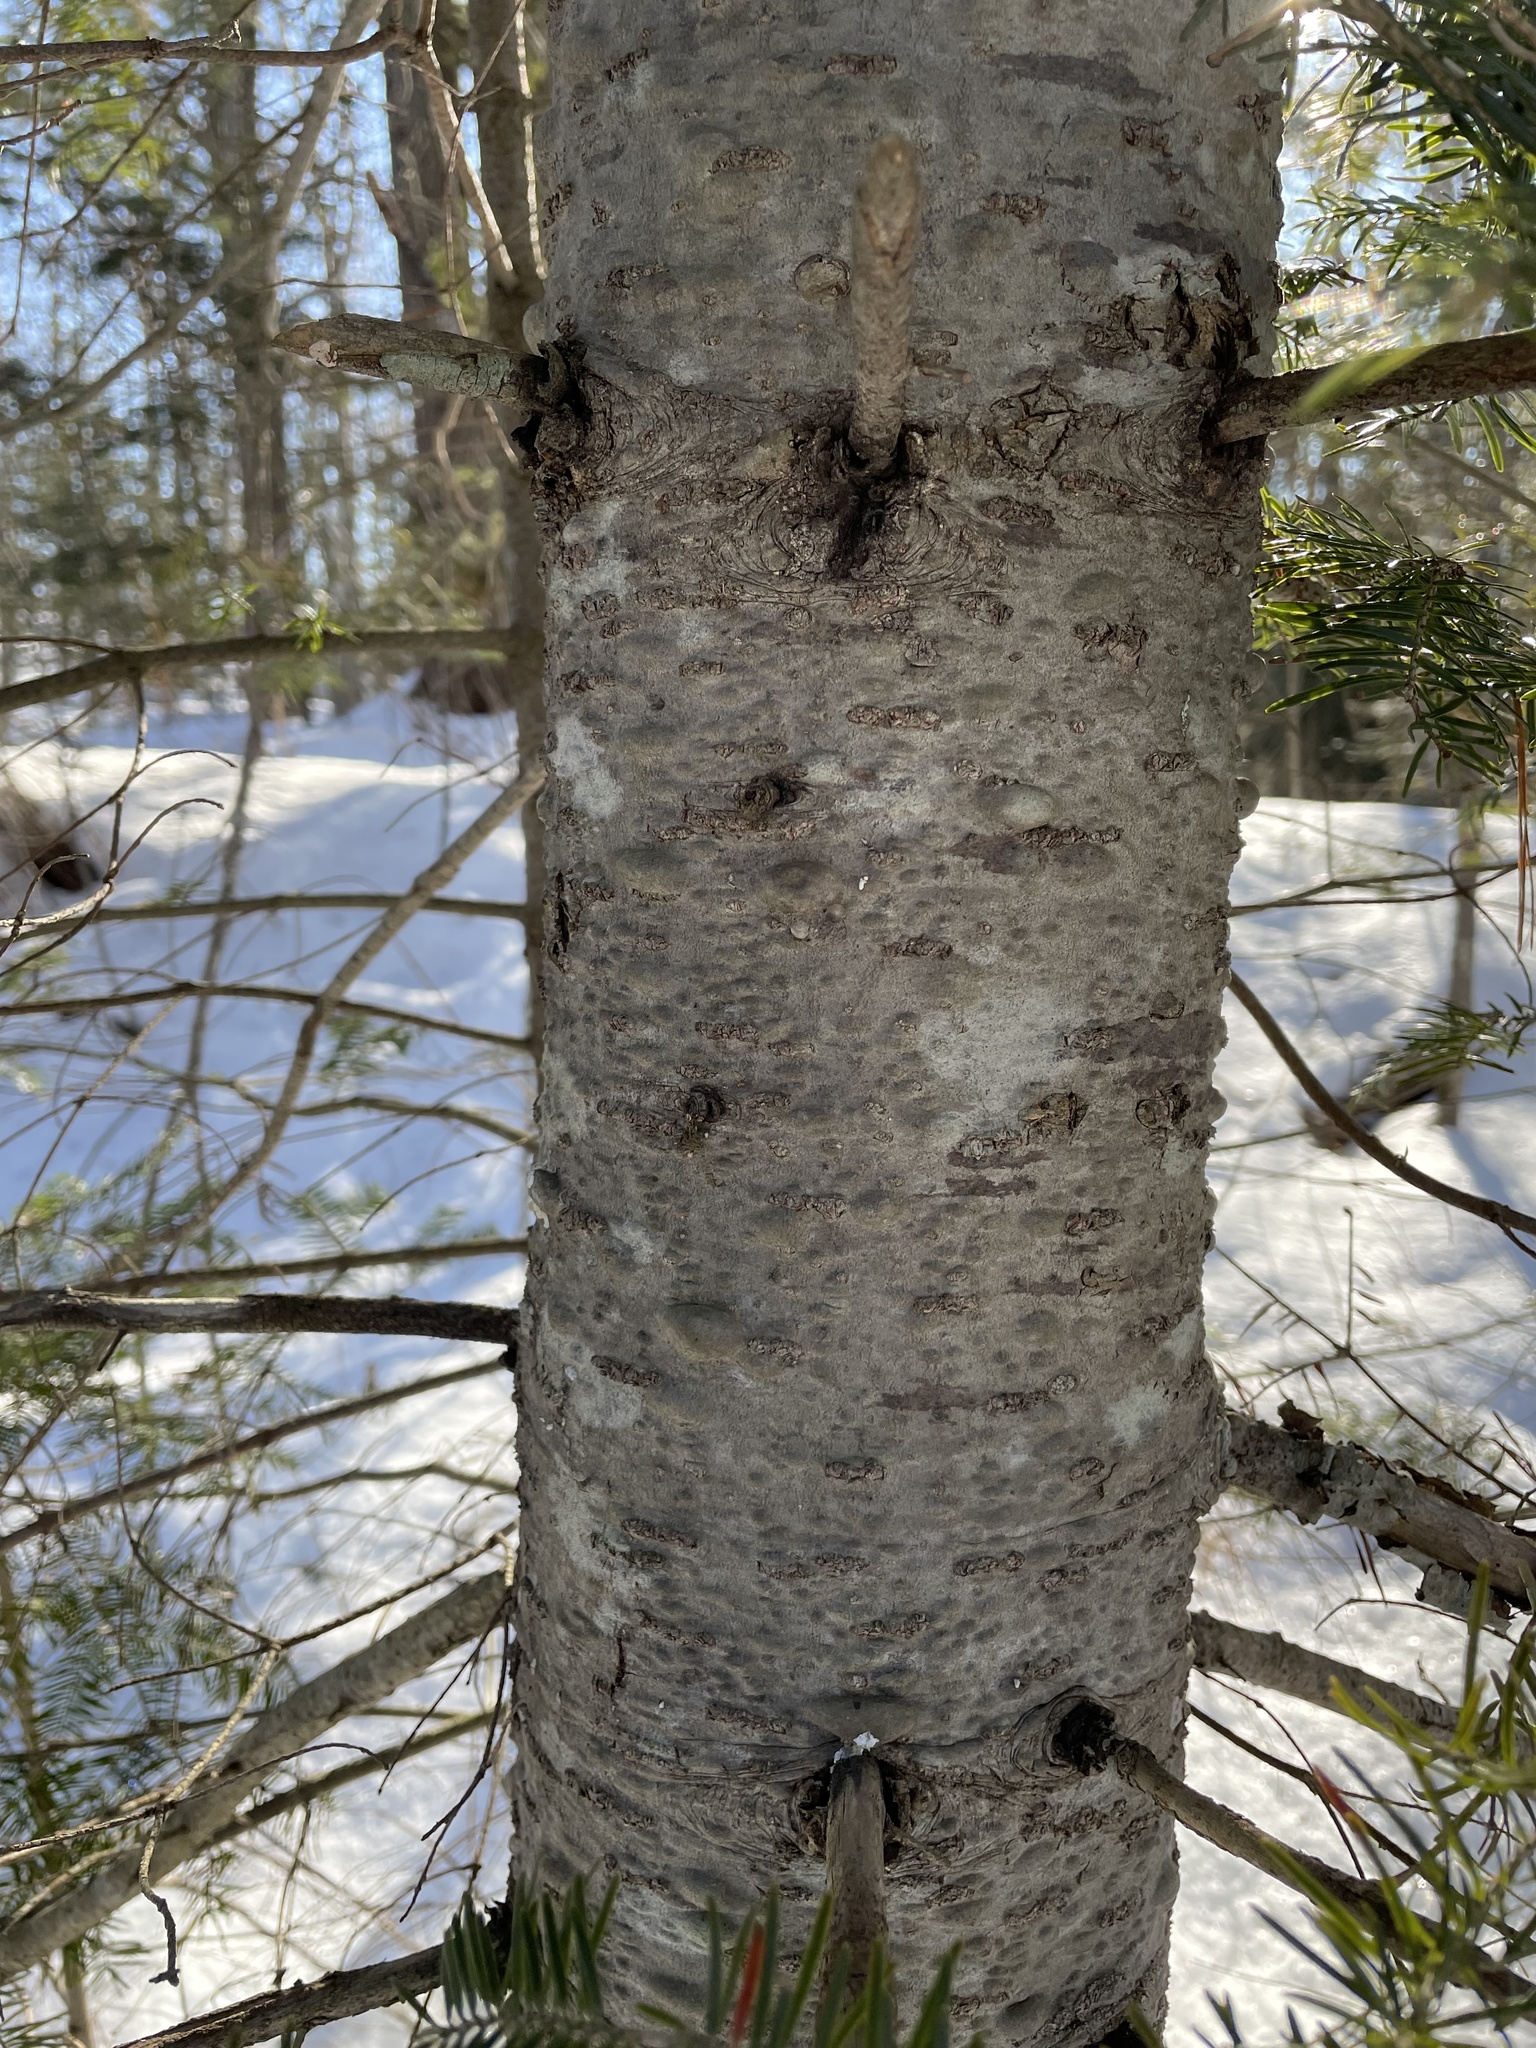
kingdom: Plantae
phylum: Tracheophyta
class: Pinopsida
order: Pinales
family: Pinaceae
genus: Abies
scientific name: Abies balsamea
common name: Balsam fir
